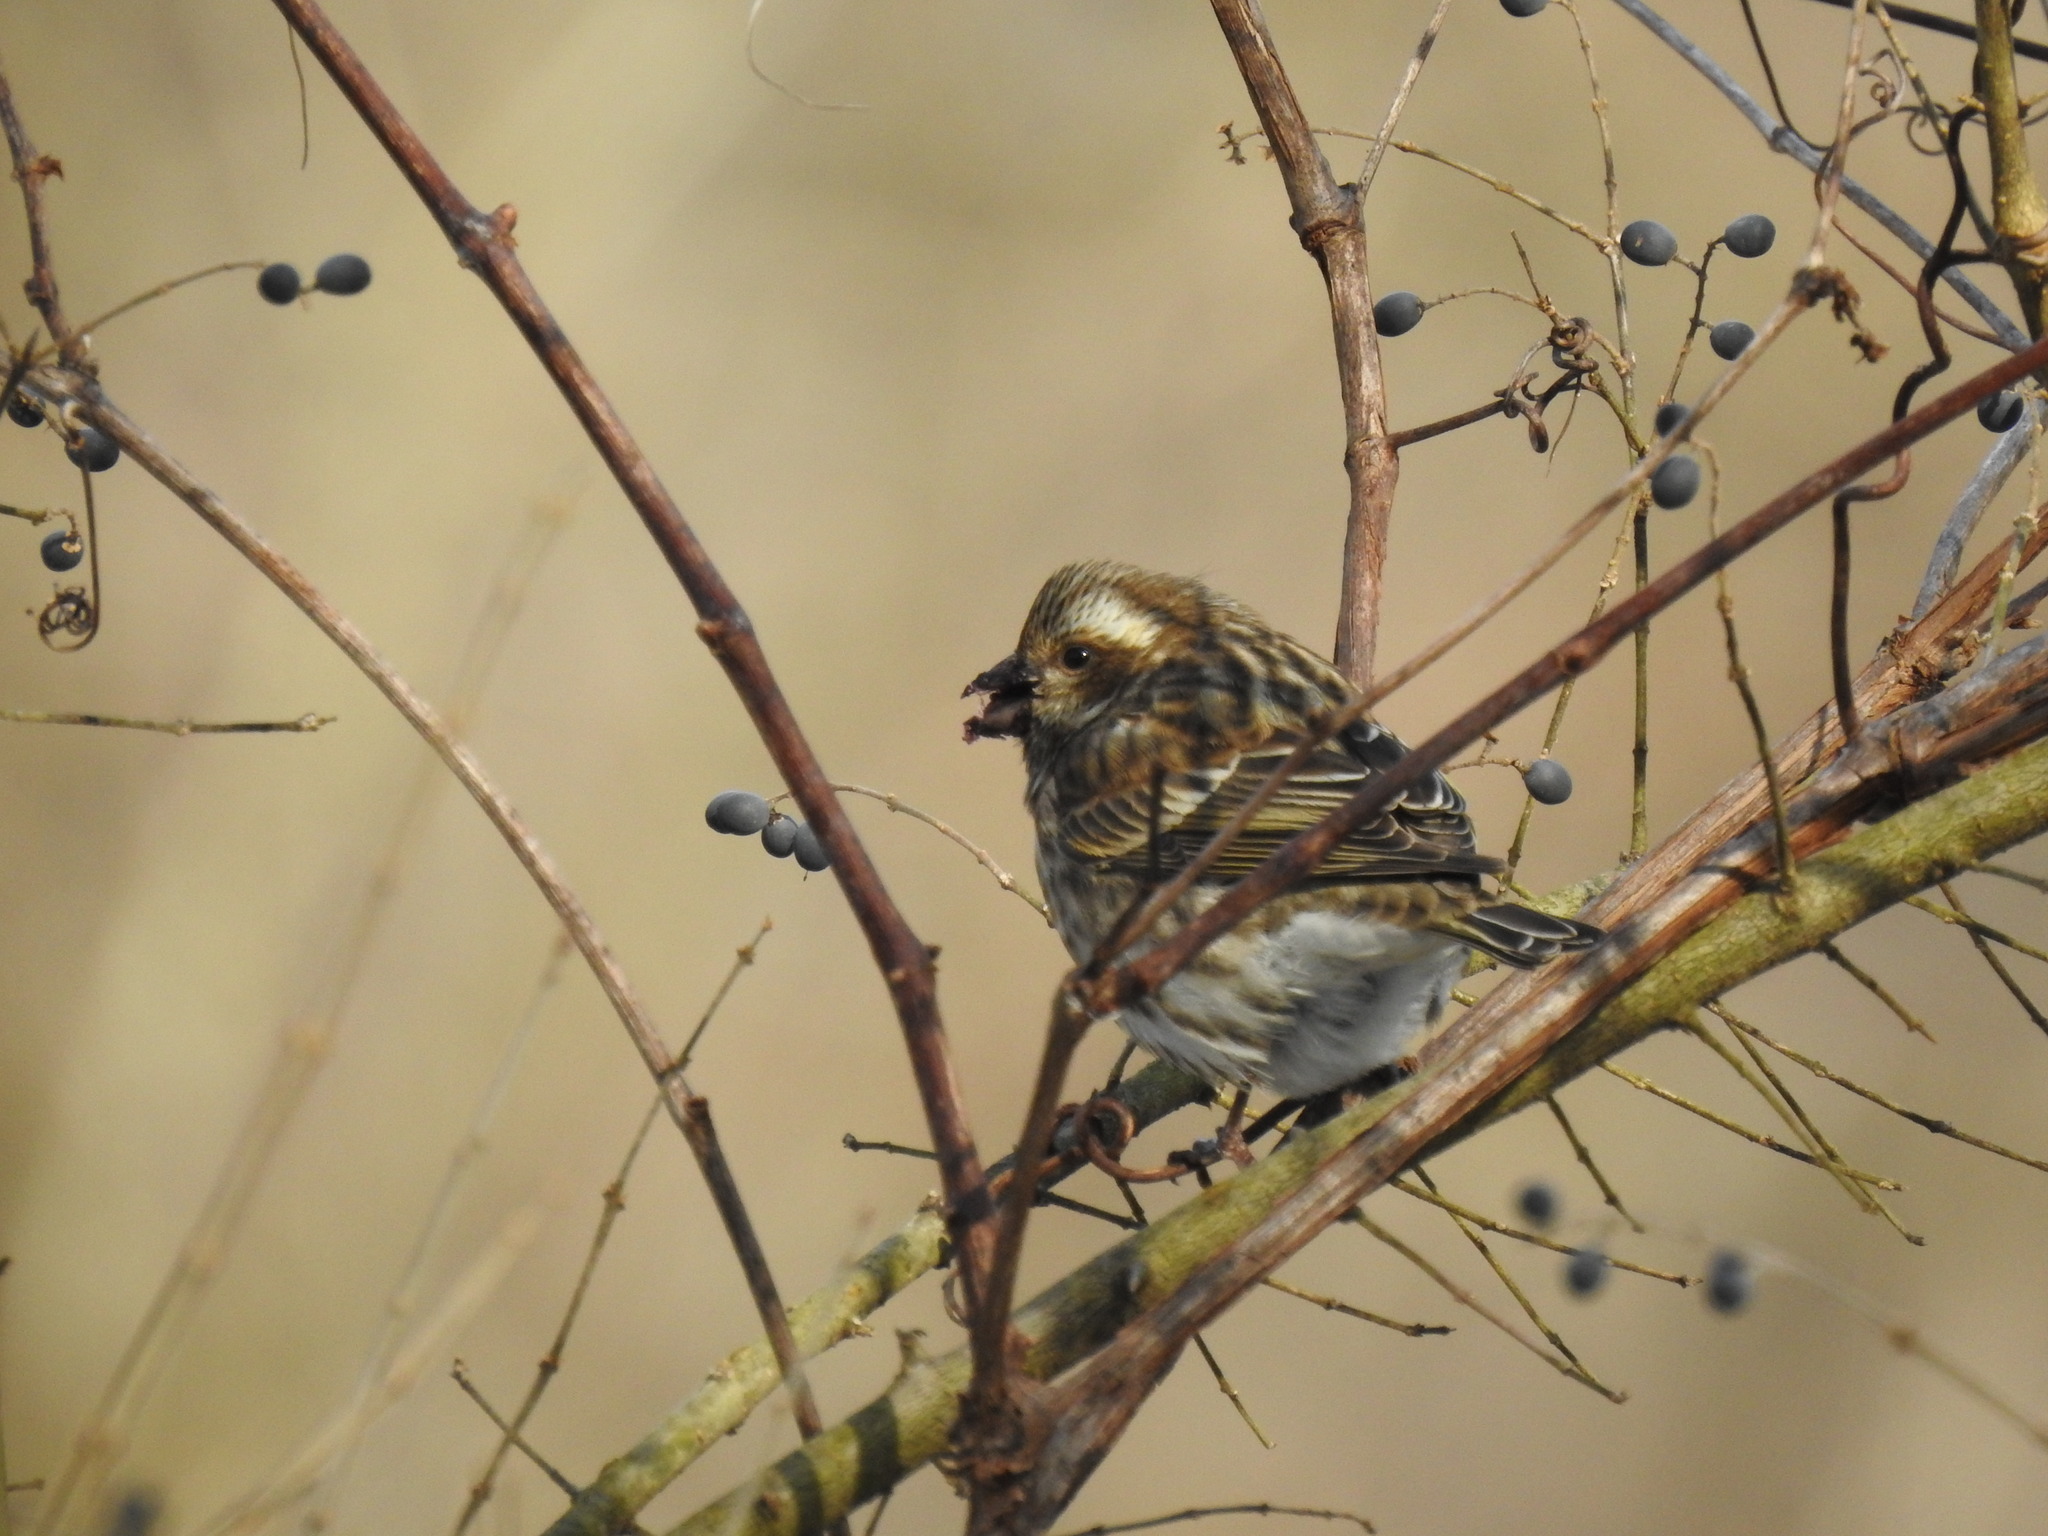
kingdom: Animalia
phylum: Chordata
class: Aves
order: Passeriformes
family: Fringillidae
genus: Haemorhous
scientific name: Haemorhous purpureus
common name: Purple finch
